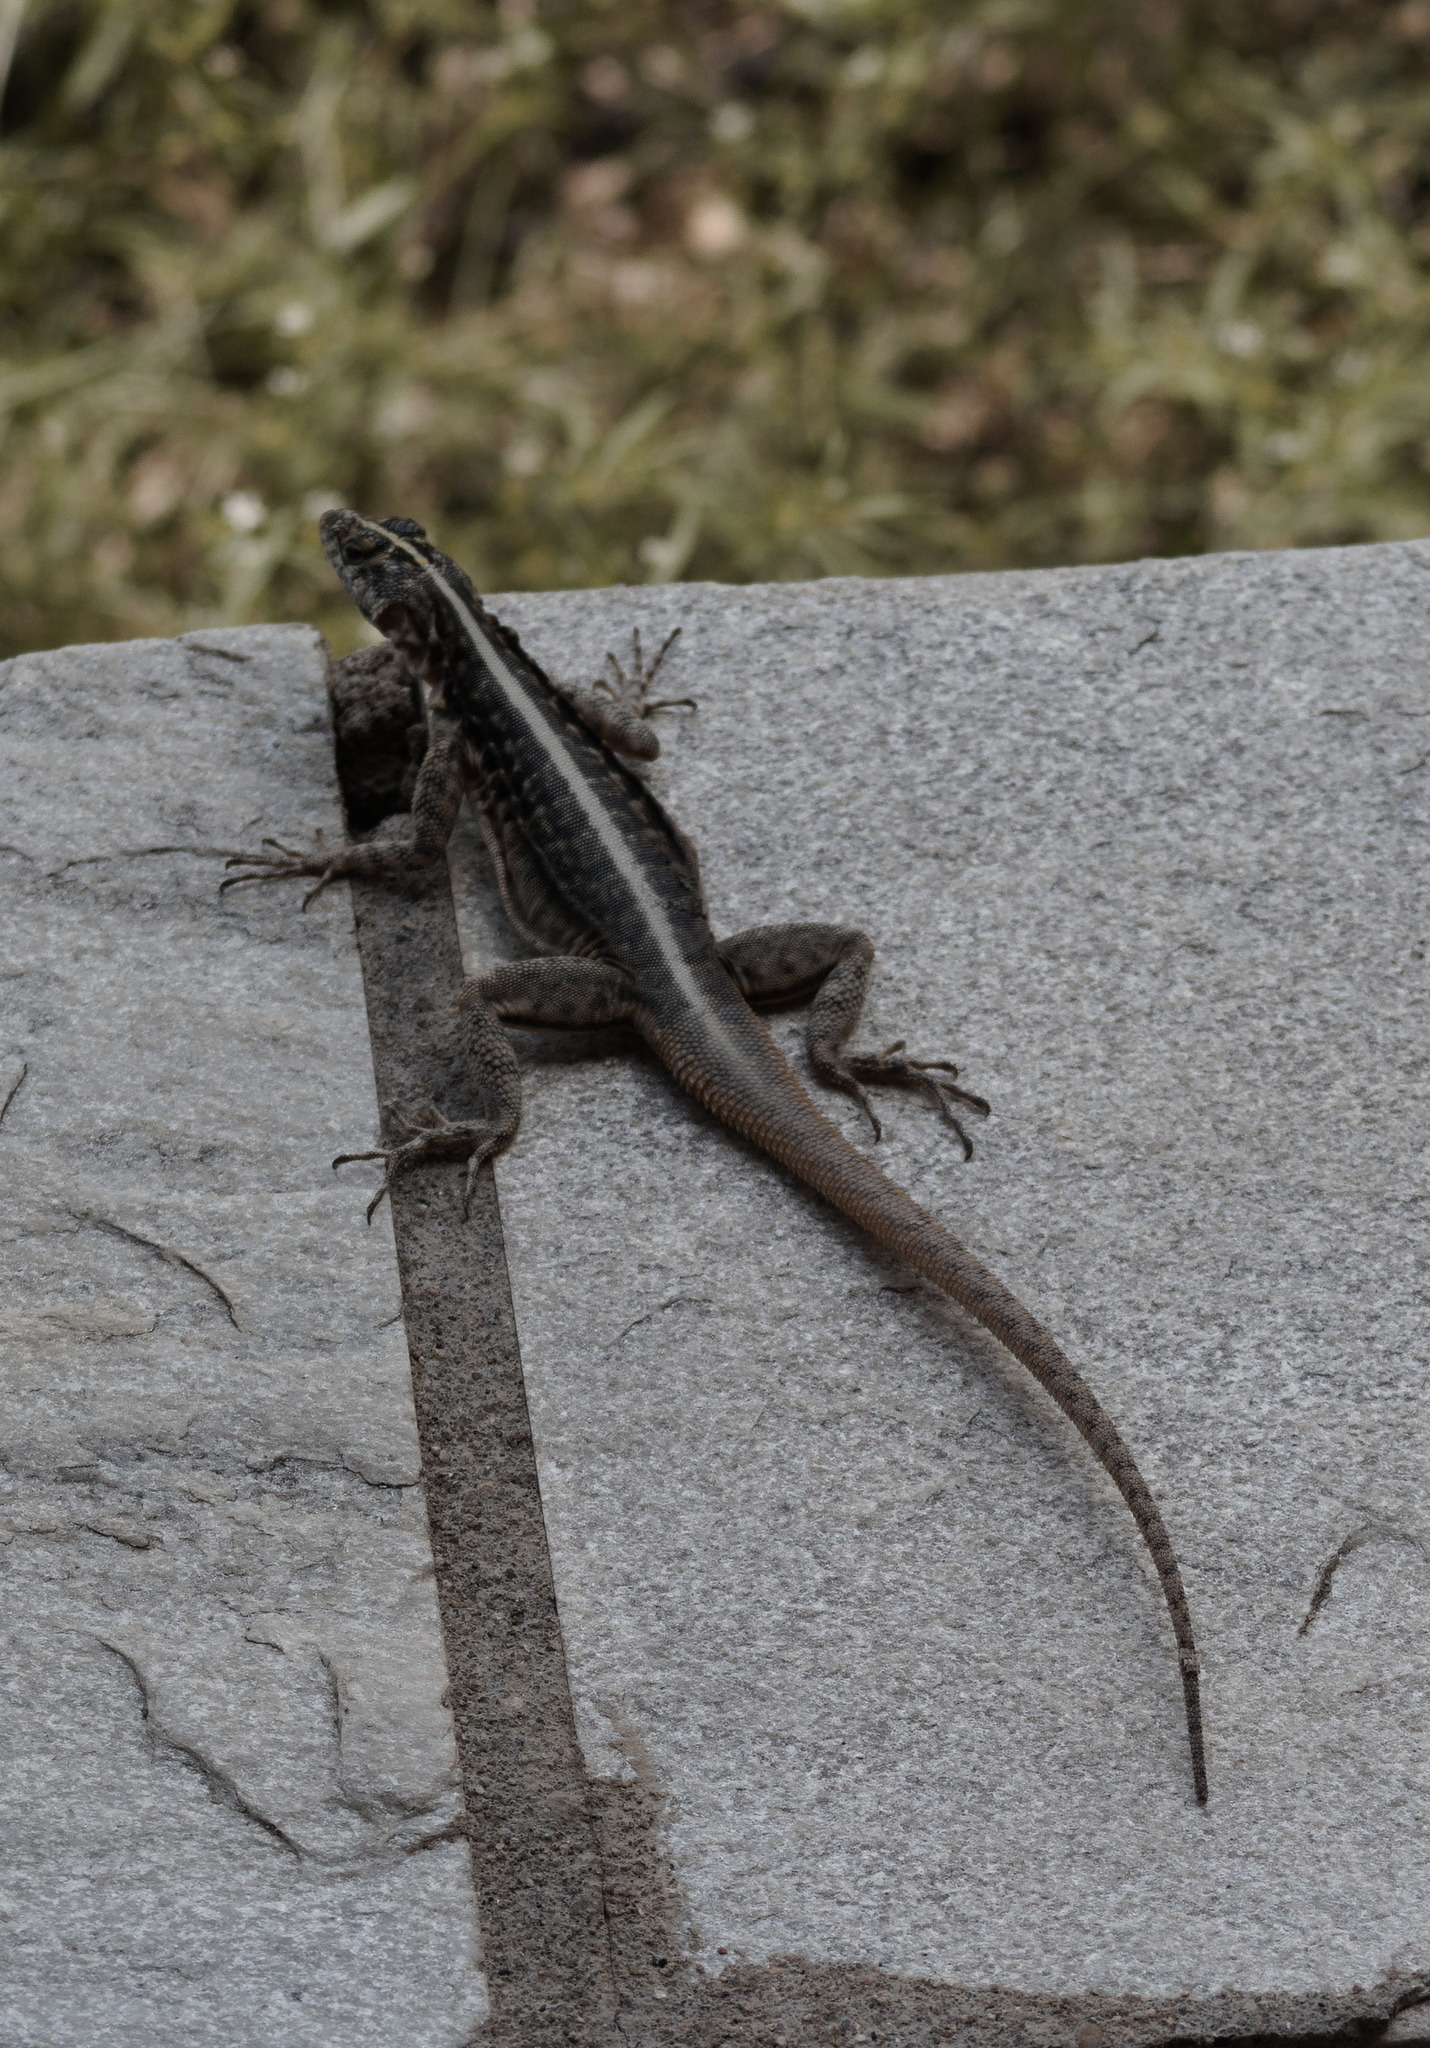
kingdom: Animalia
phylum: Chordata
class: Squamata
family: Tropiduridae
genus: Tropidurus
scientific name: Tropidurus semitaeniatus
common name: Striped lava lizard
